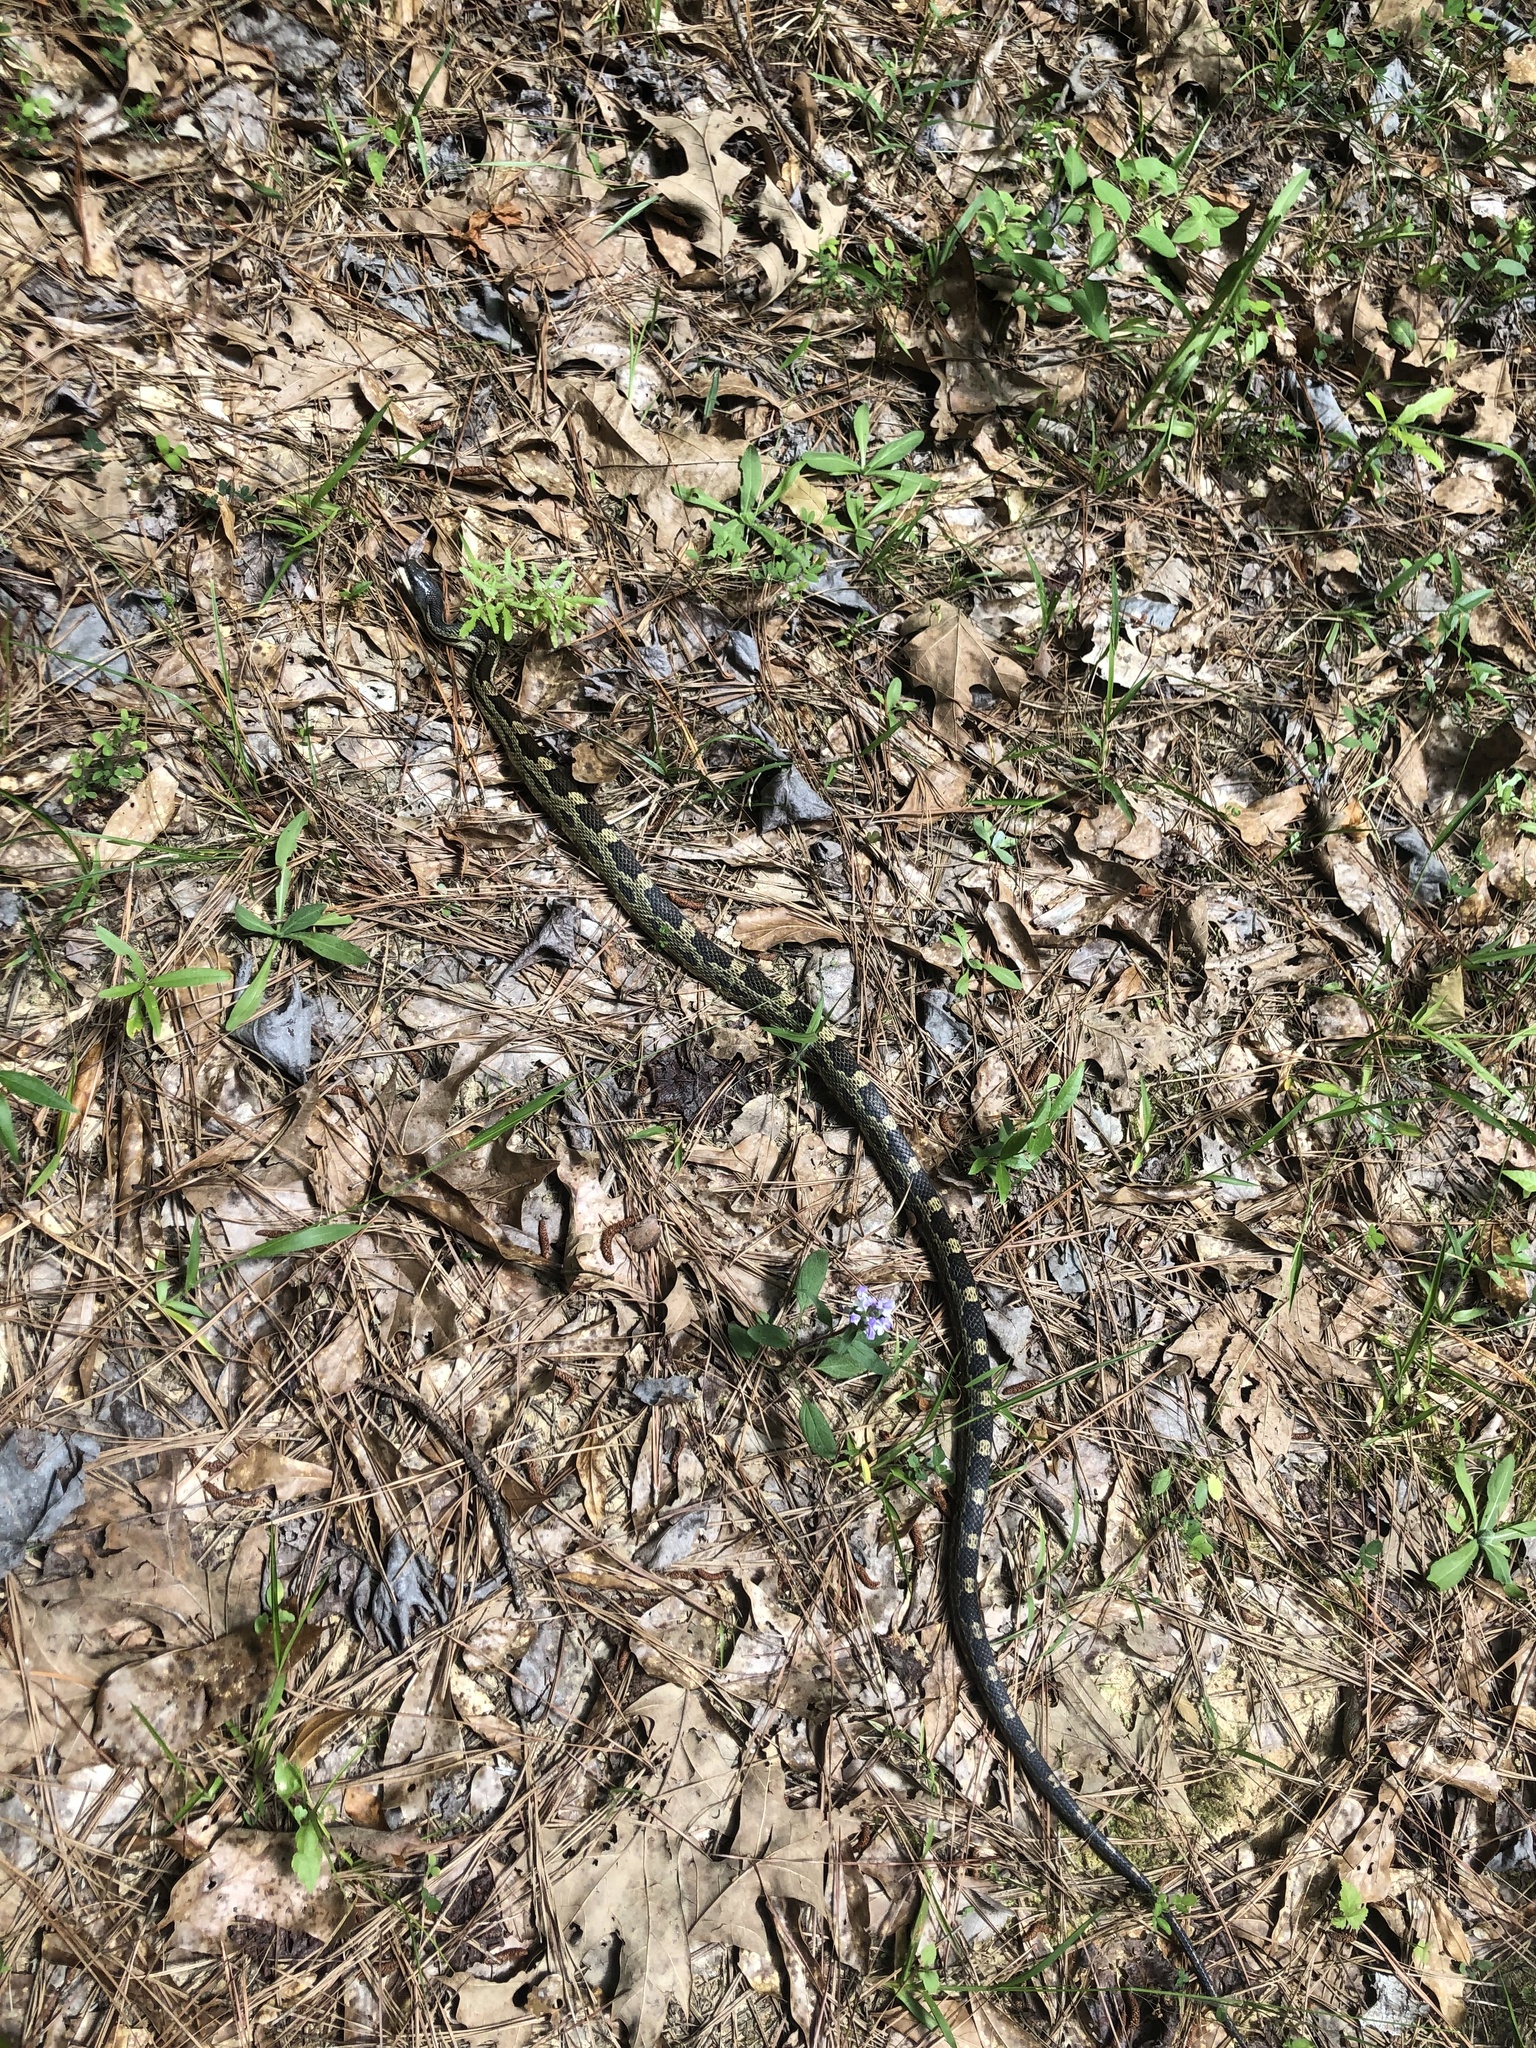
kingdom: Animalia
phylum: Chordata
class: Squamata
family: Colubridae
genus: Pantherophis
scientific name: Pantherophis spiloides
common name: Gray rat snake
